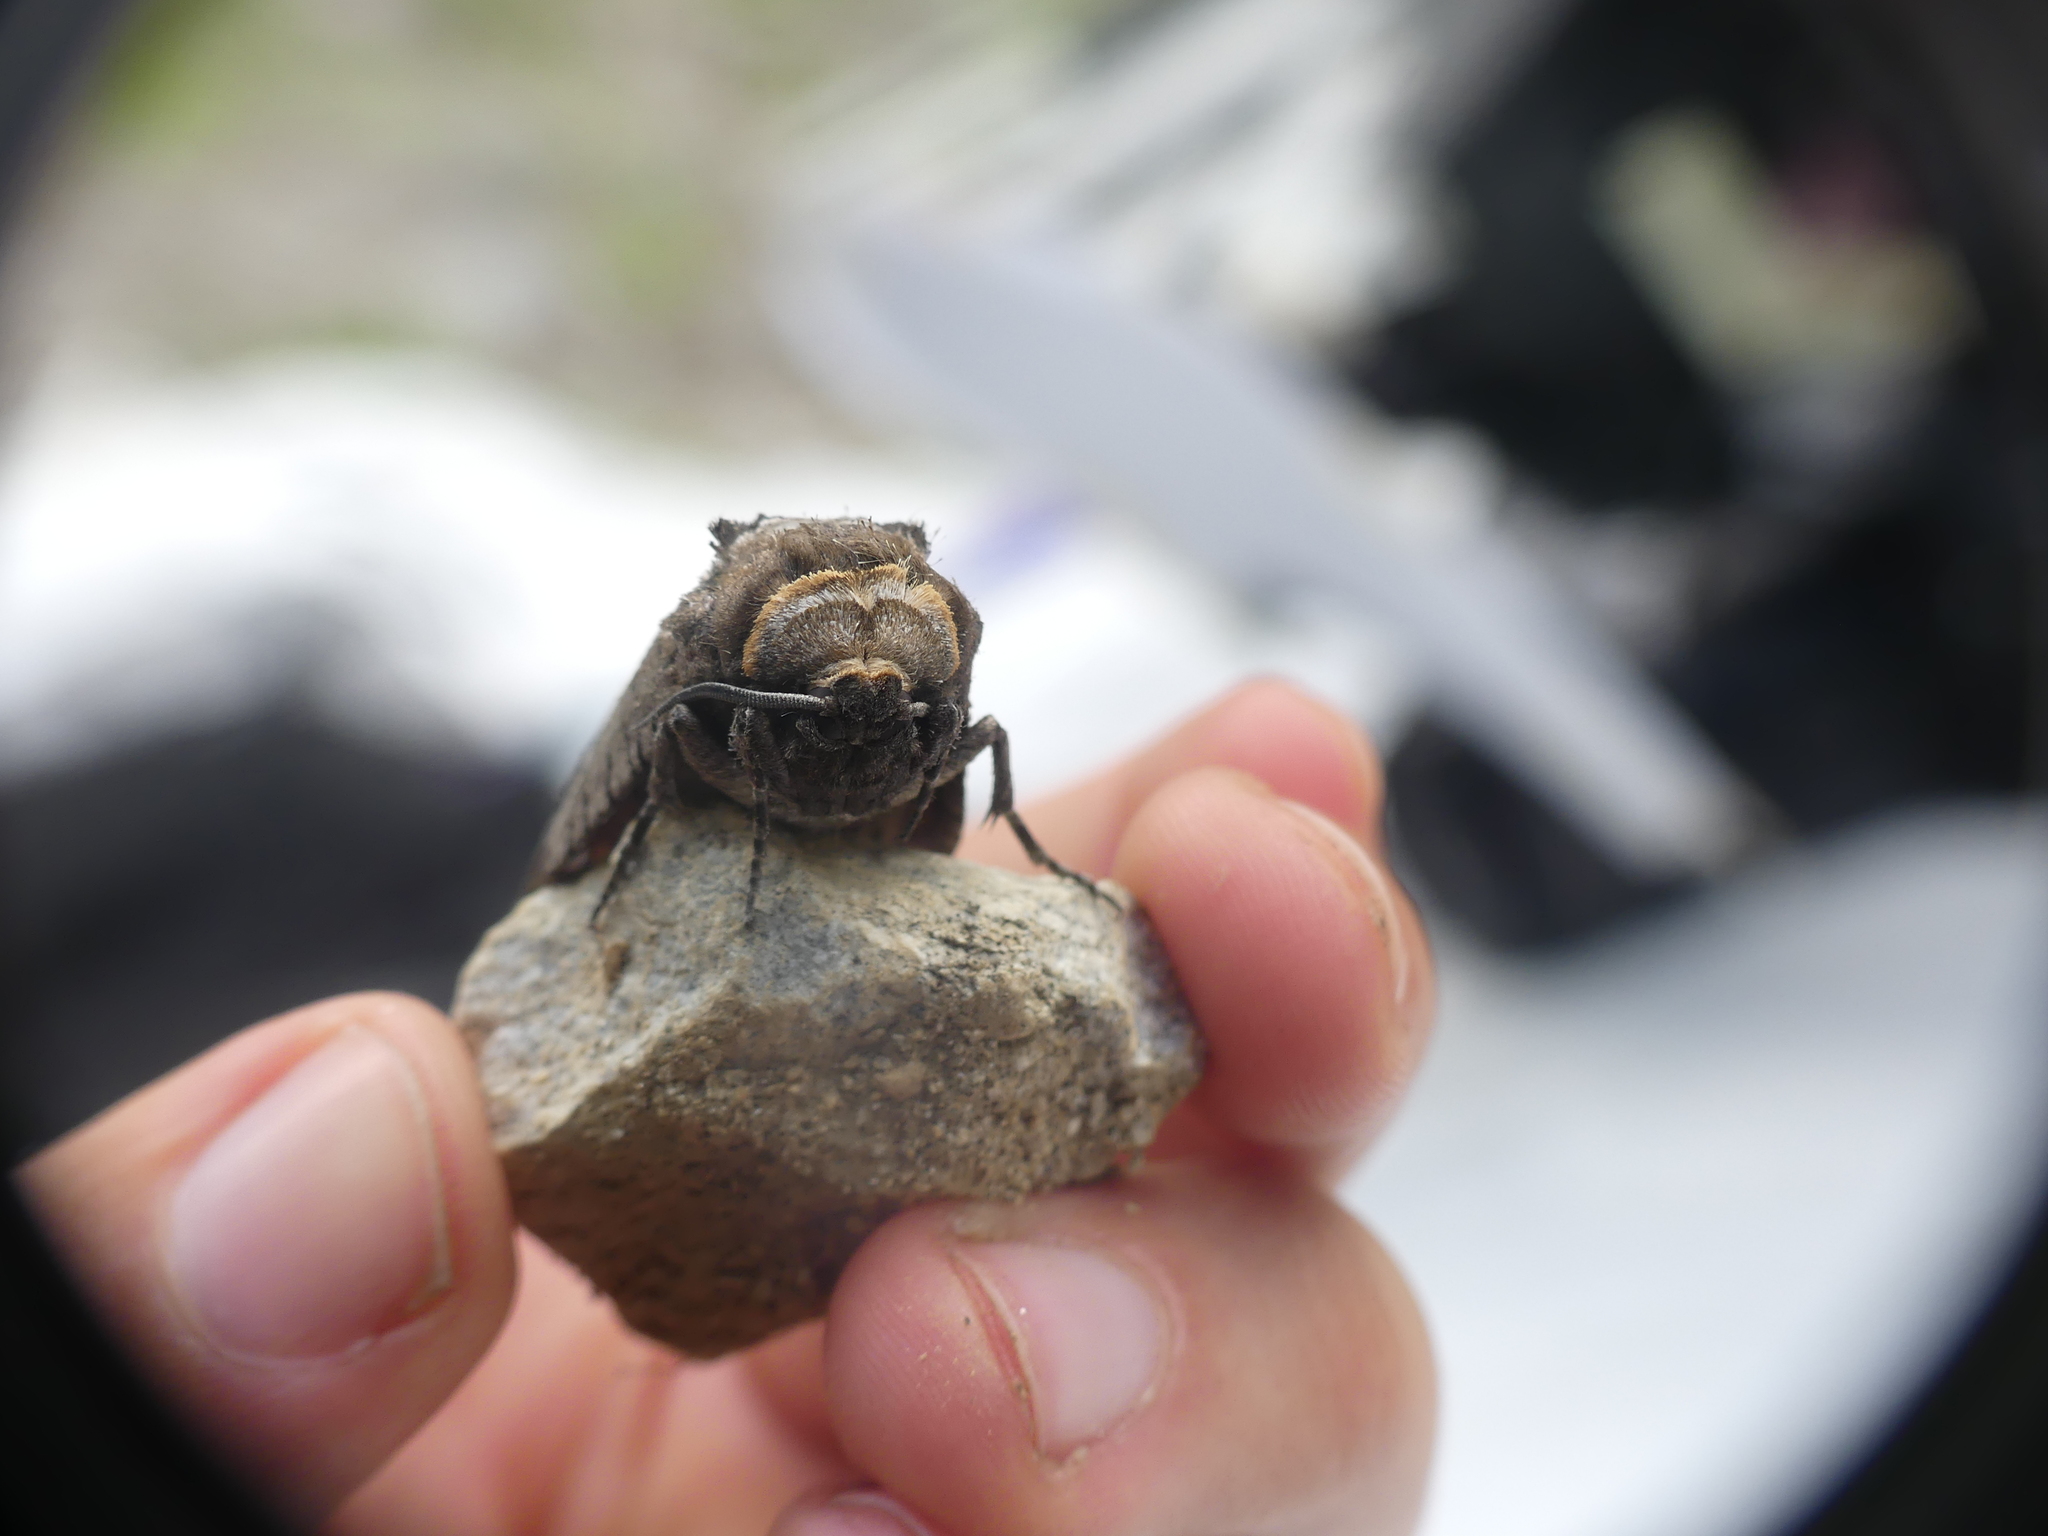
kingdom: Animalia
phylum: Arthropoda
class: Insecta
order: Lepidoptera
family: Cossidae
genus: Cossus
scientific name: Cossus cossus
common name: Goat moth
